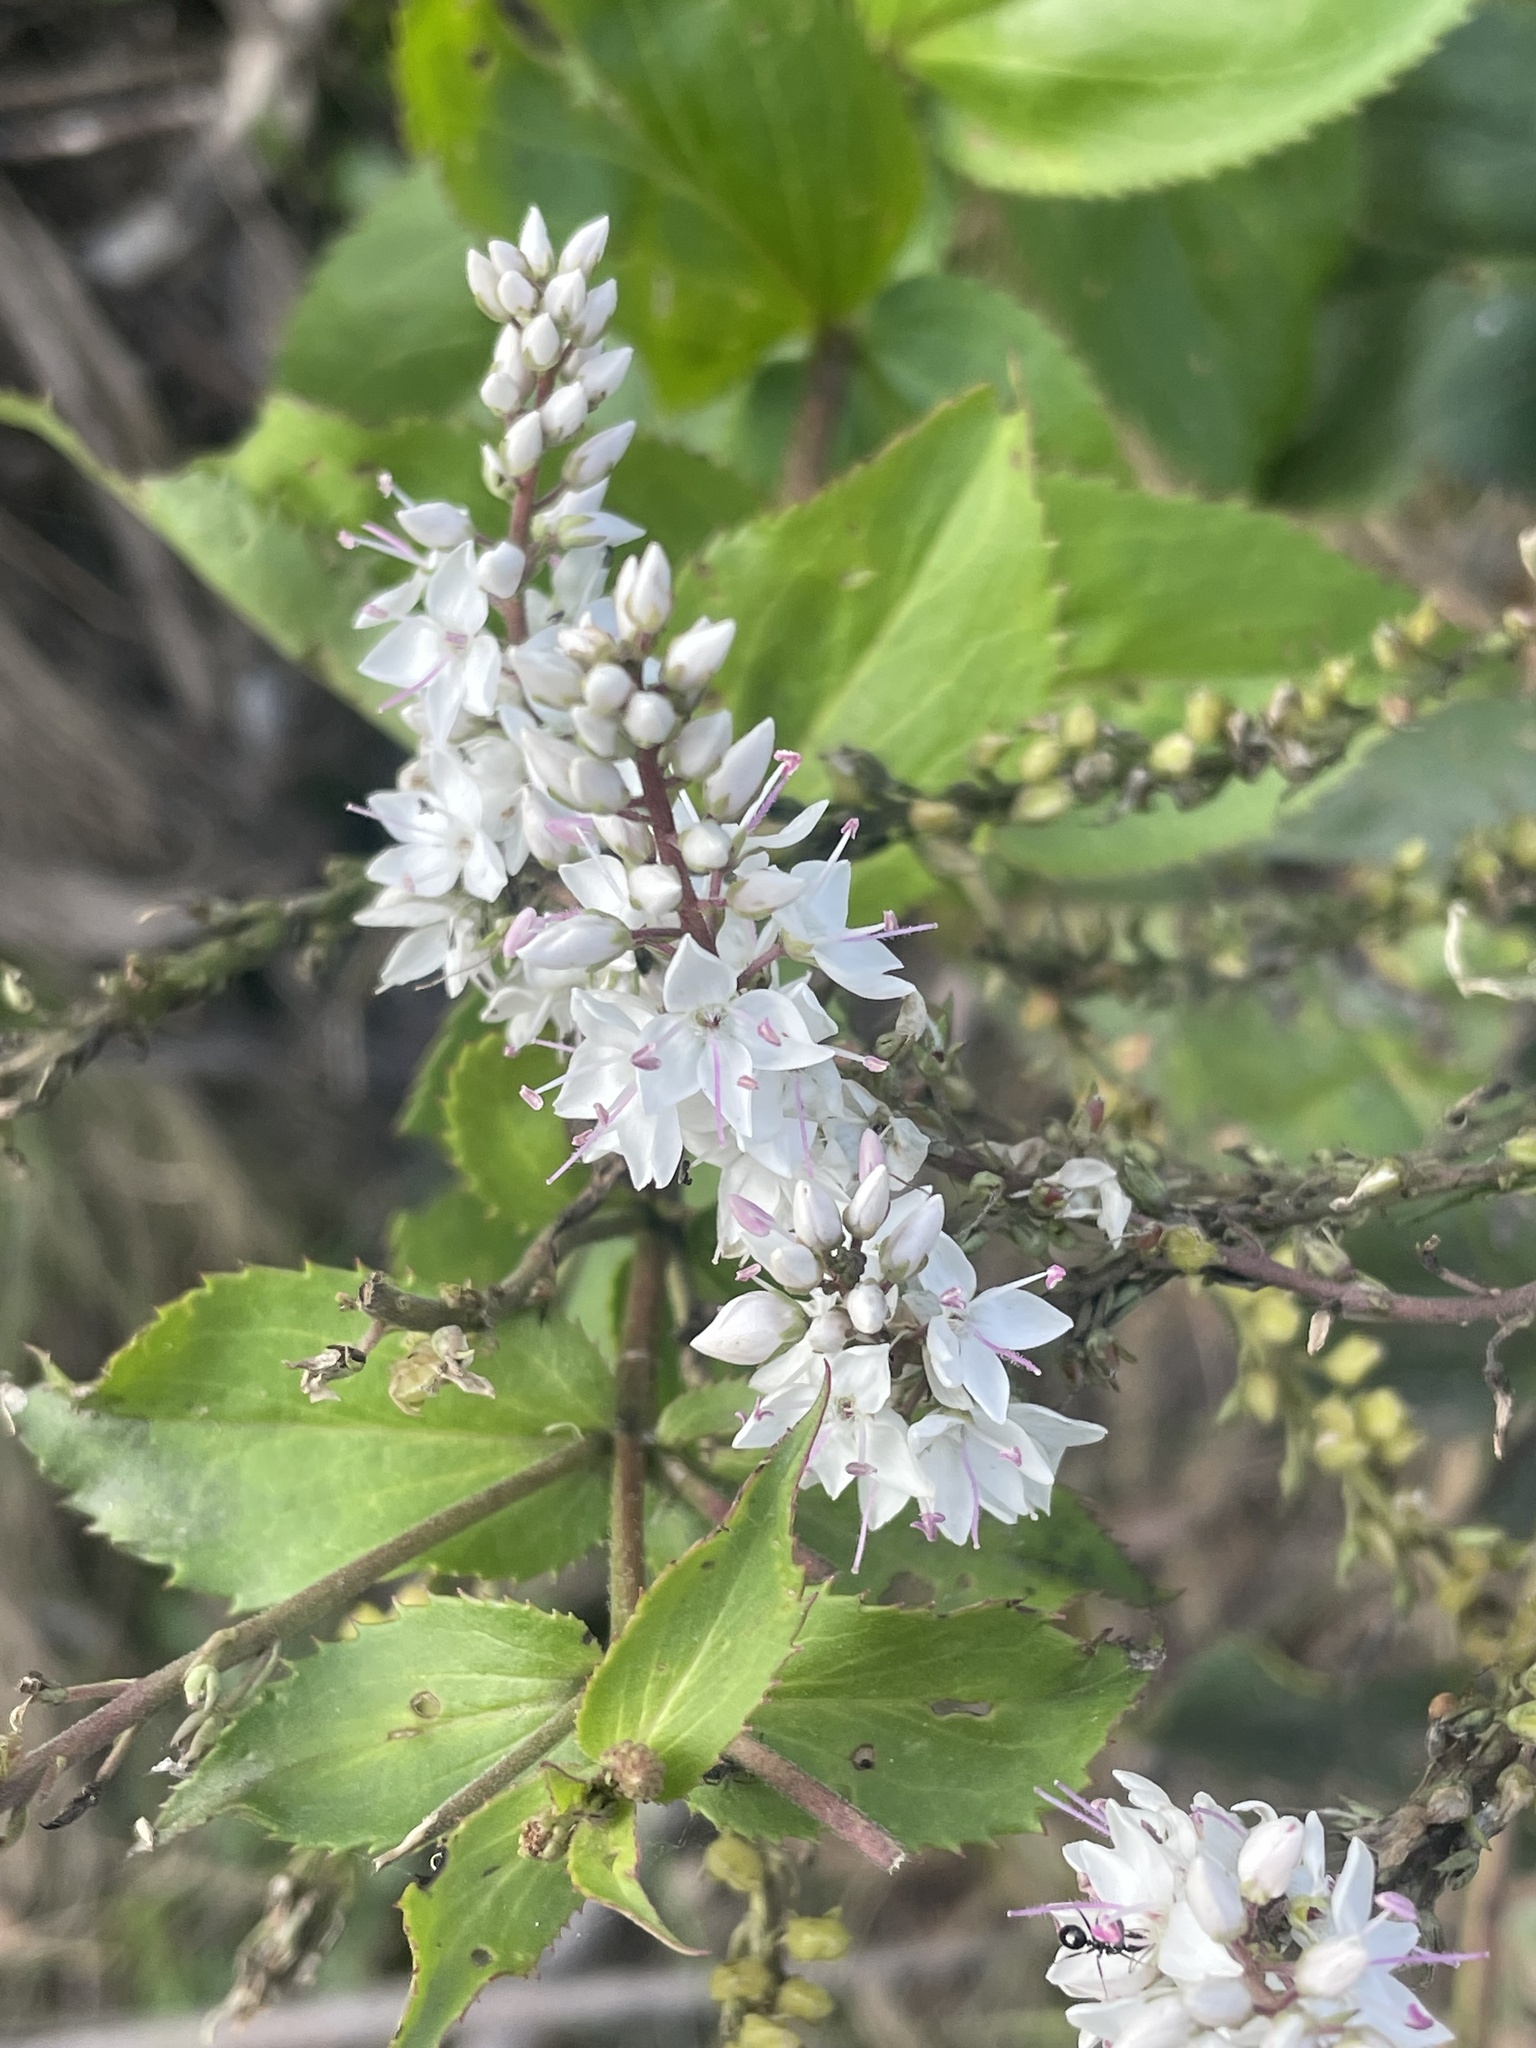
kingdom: Plantae
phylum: Tracheophyta
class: Magnoliopsida
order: Lamiales
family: Plantaginaceae
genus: Veronica
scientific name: Veronica derwentiana
